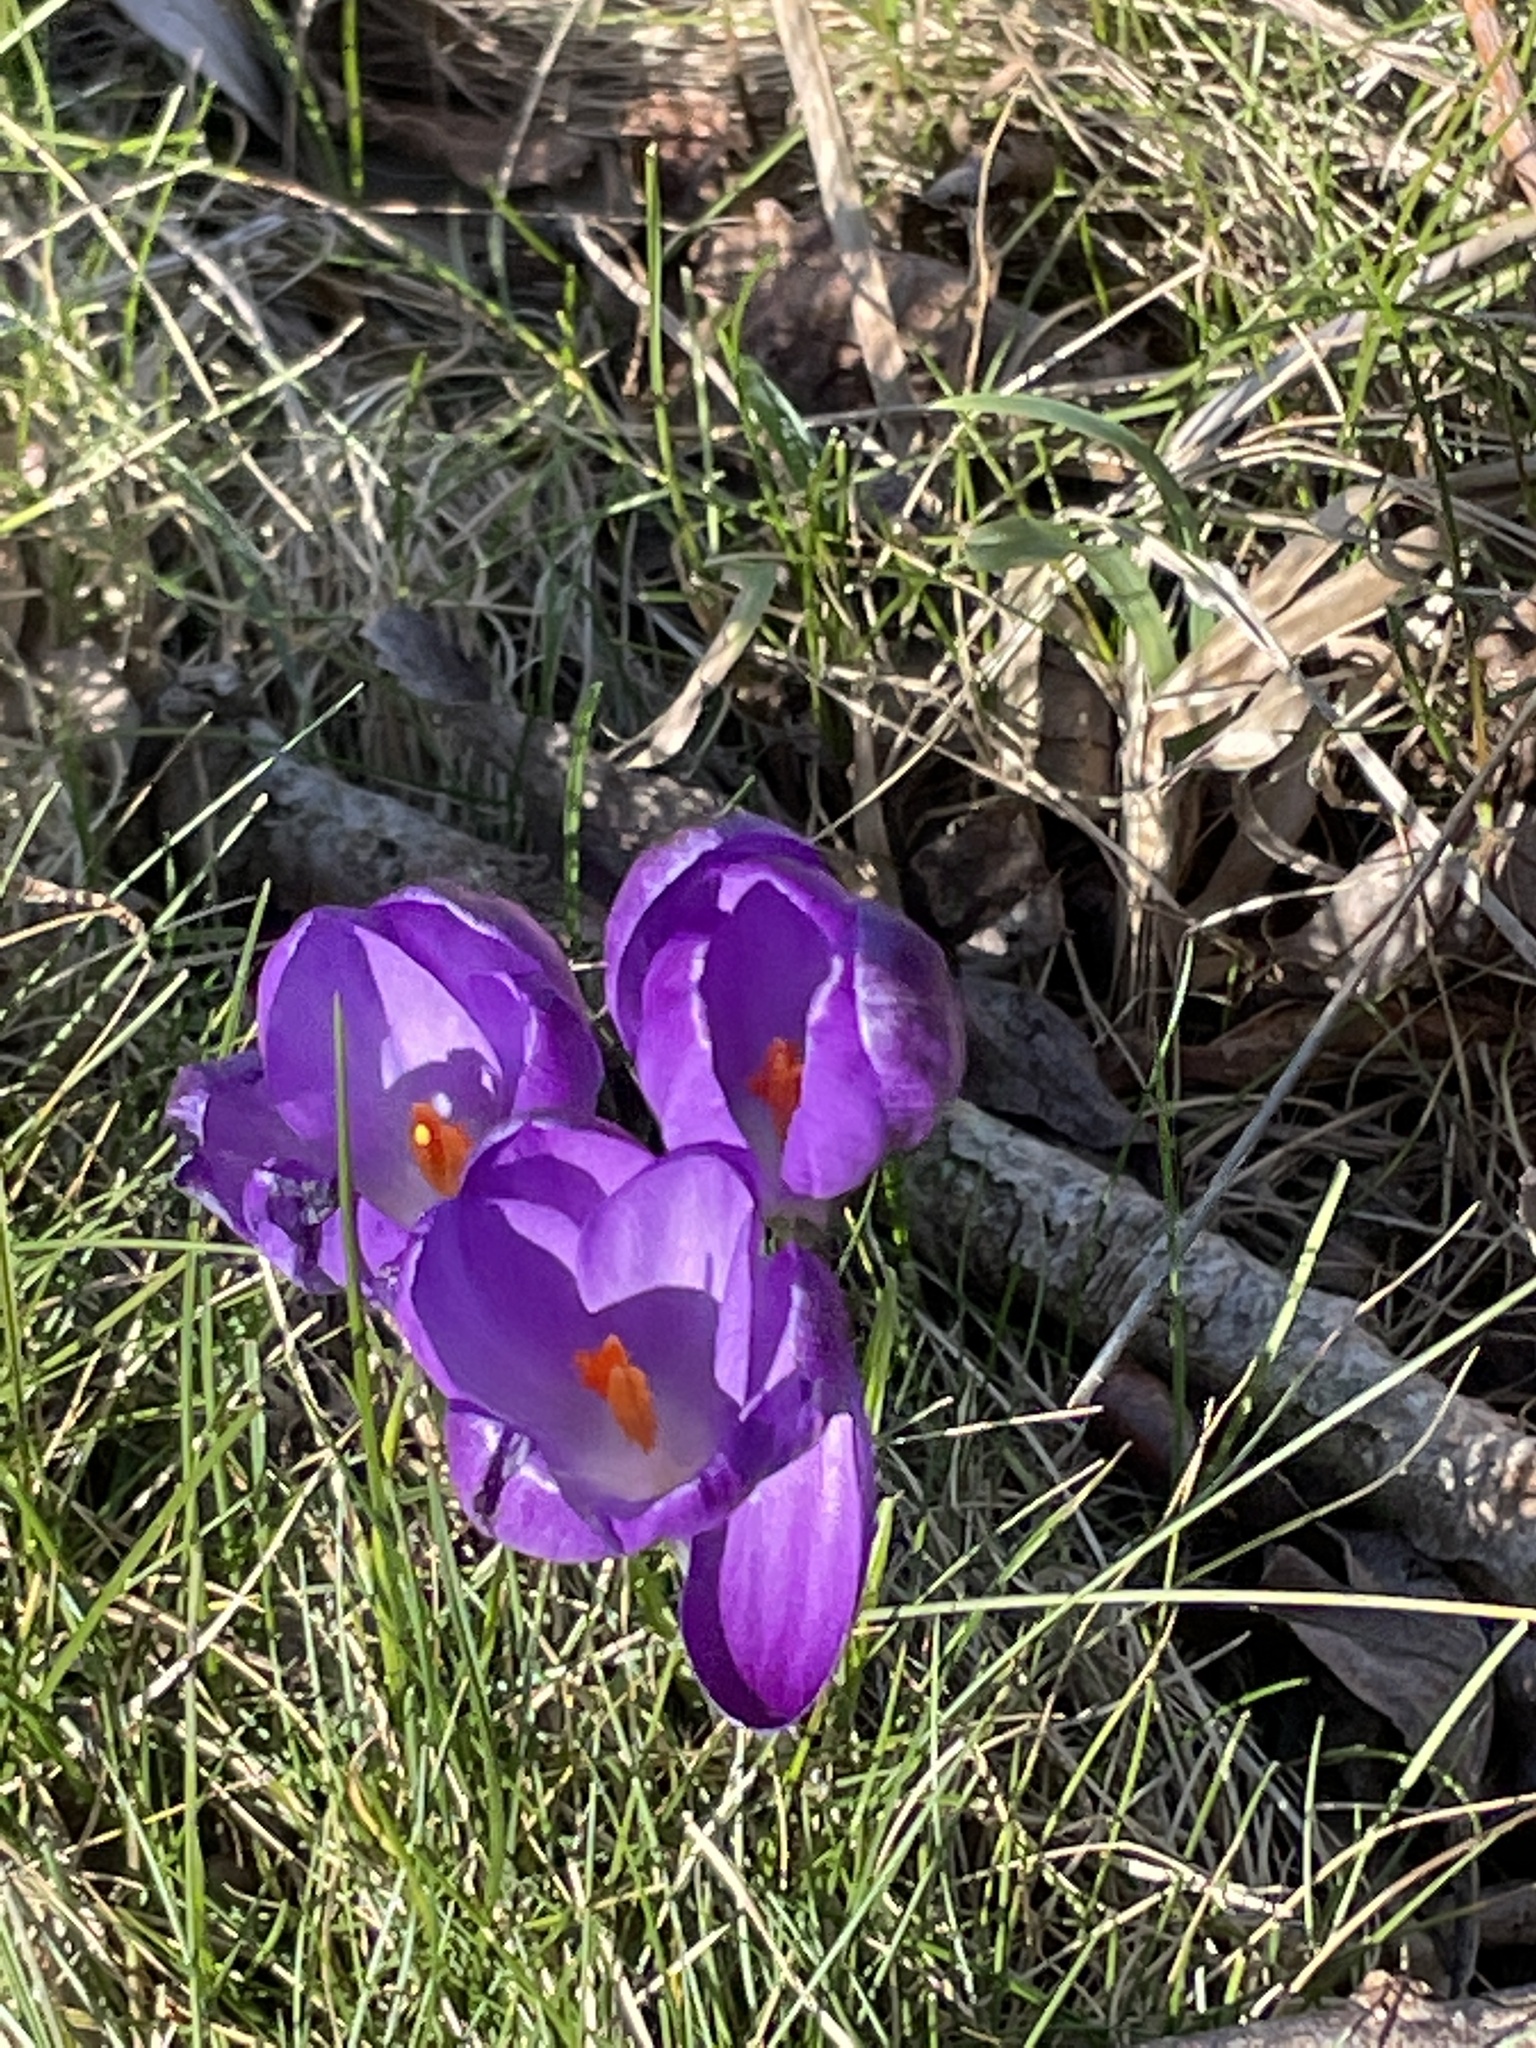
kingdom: Plantae
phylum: Tracheophyta
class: Liliopsida
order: Asparagales
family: Iridaceae
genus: Crocus
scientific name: Crocus vernus
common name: Spring crocus
